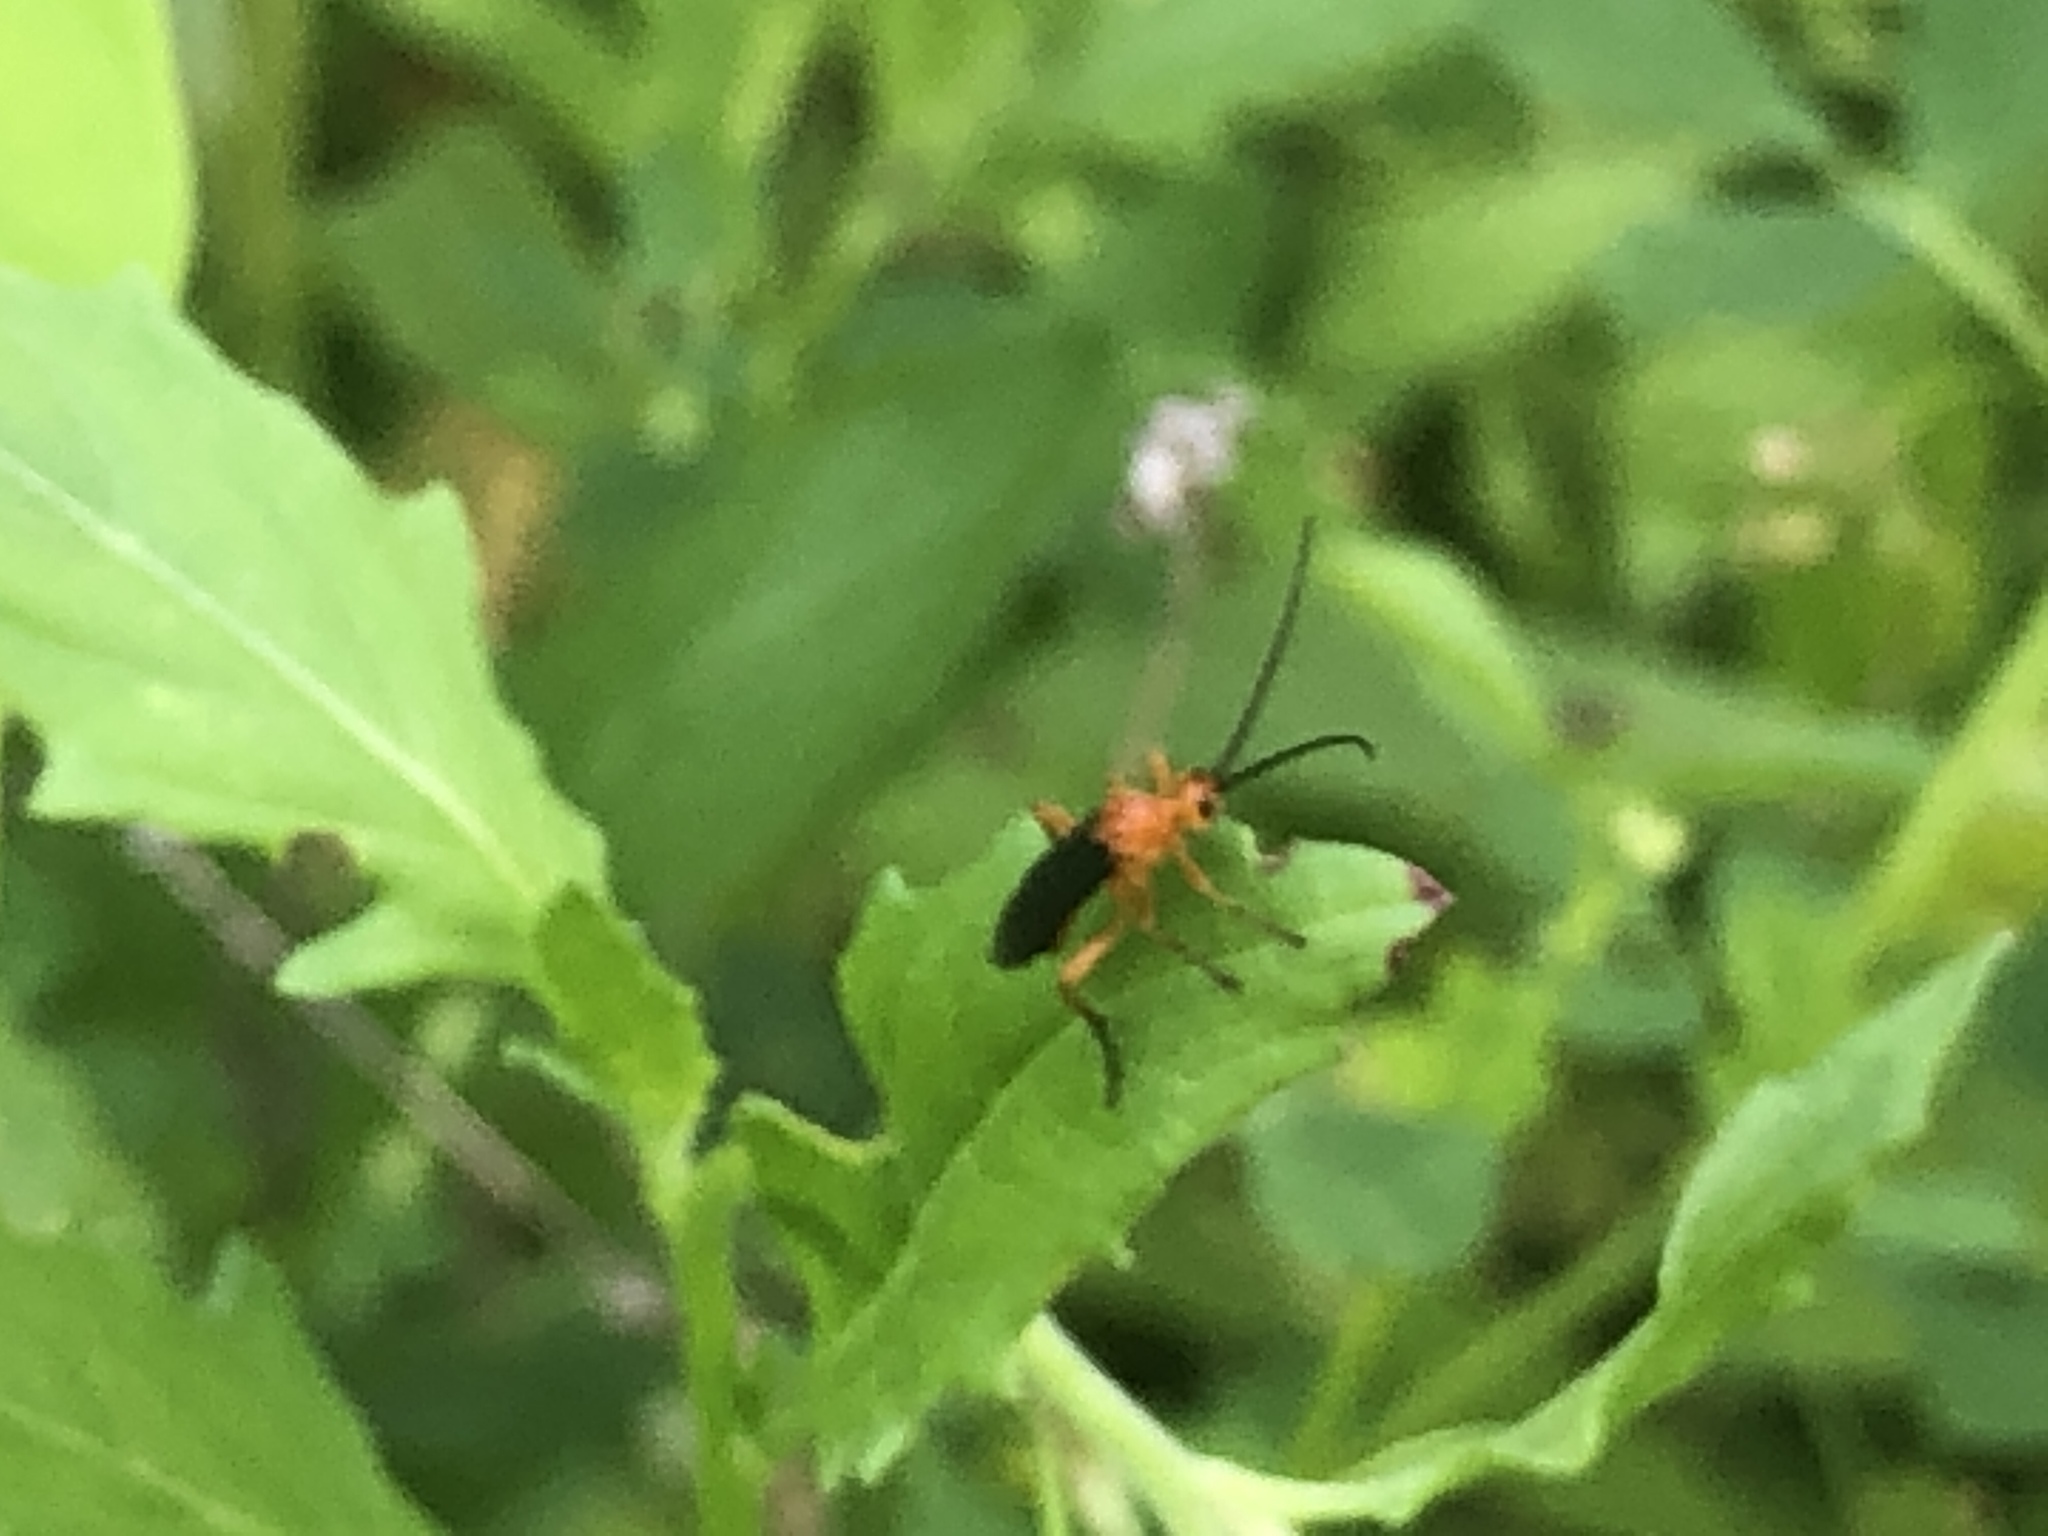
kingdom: Animalia
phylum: Arthropoda
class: Insecta
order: Hymenoptera
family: Braconidae
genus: Aleiodes
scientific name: Aleiodes politiceps
